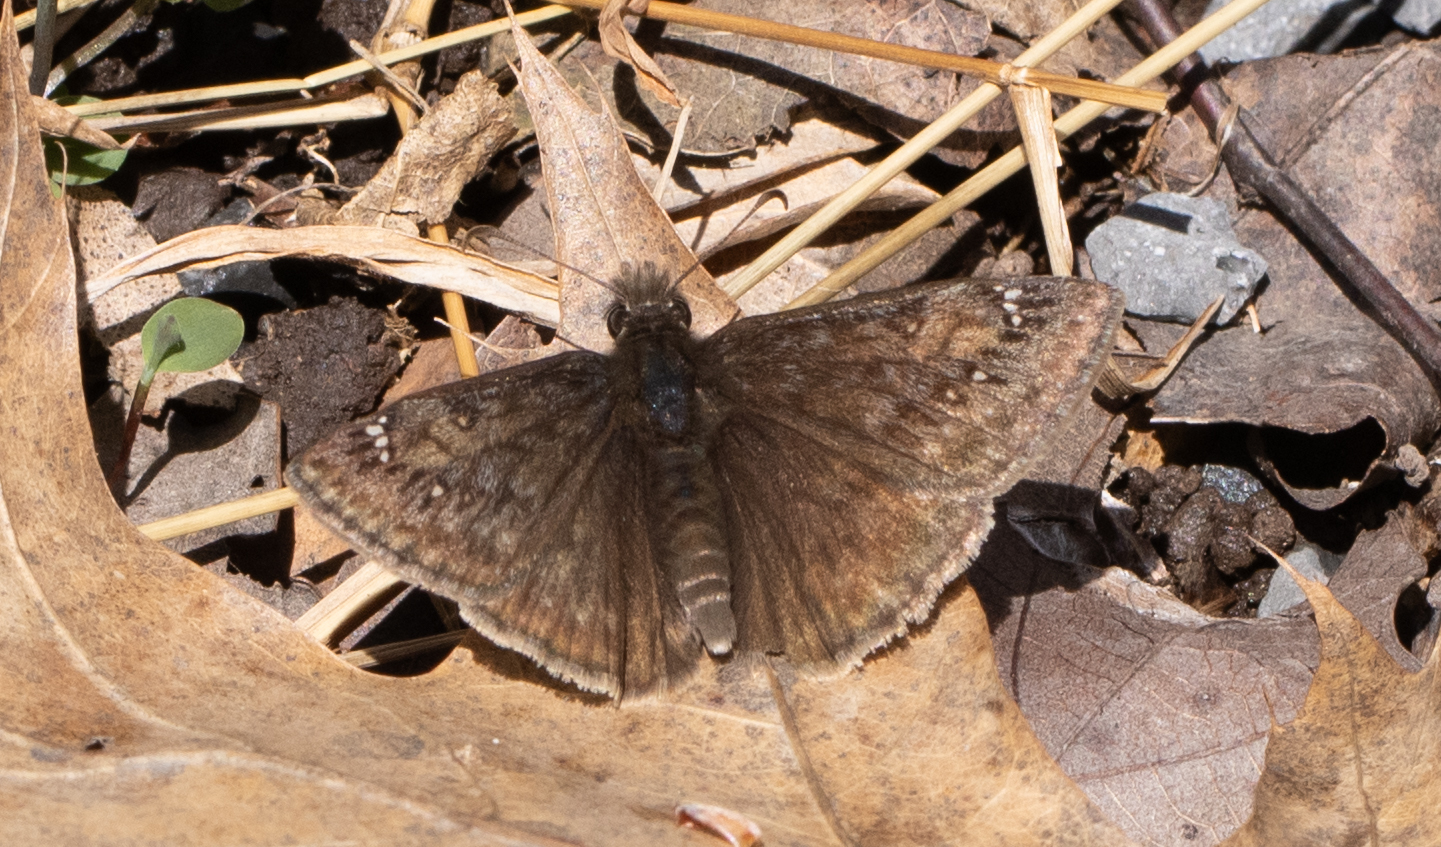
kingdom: Animalia
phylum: Arthropoda
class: Insecta
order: Lepidoptera
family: Hesperiidae
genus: Erynnis
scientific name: Erynnis juvenalis
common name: Juvenal's duskywing
